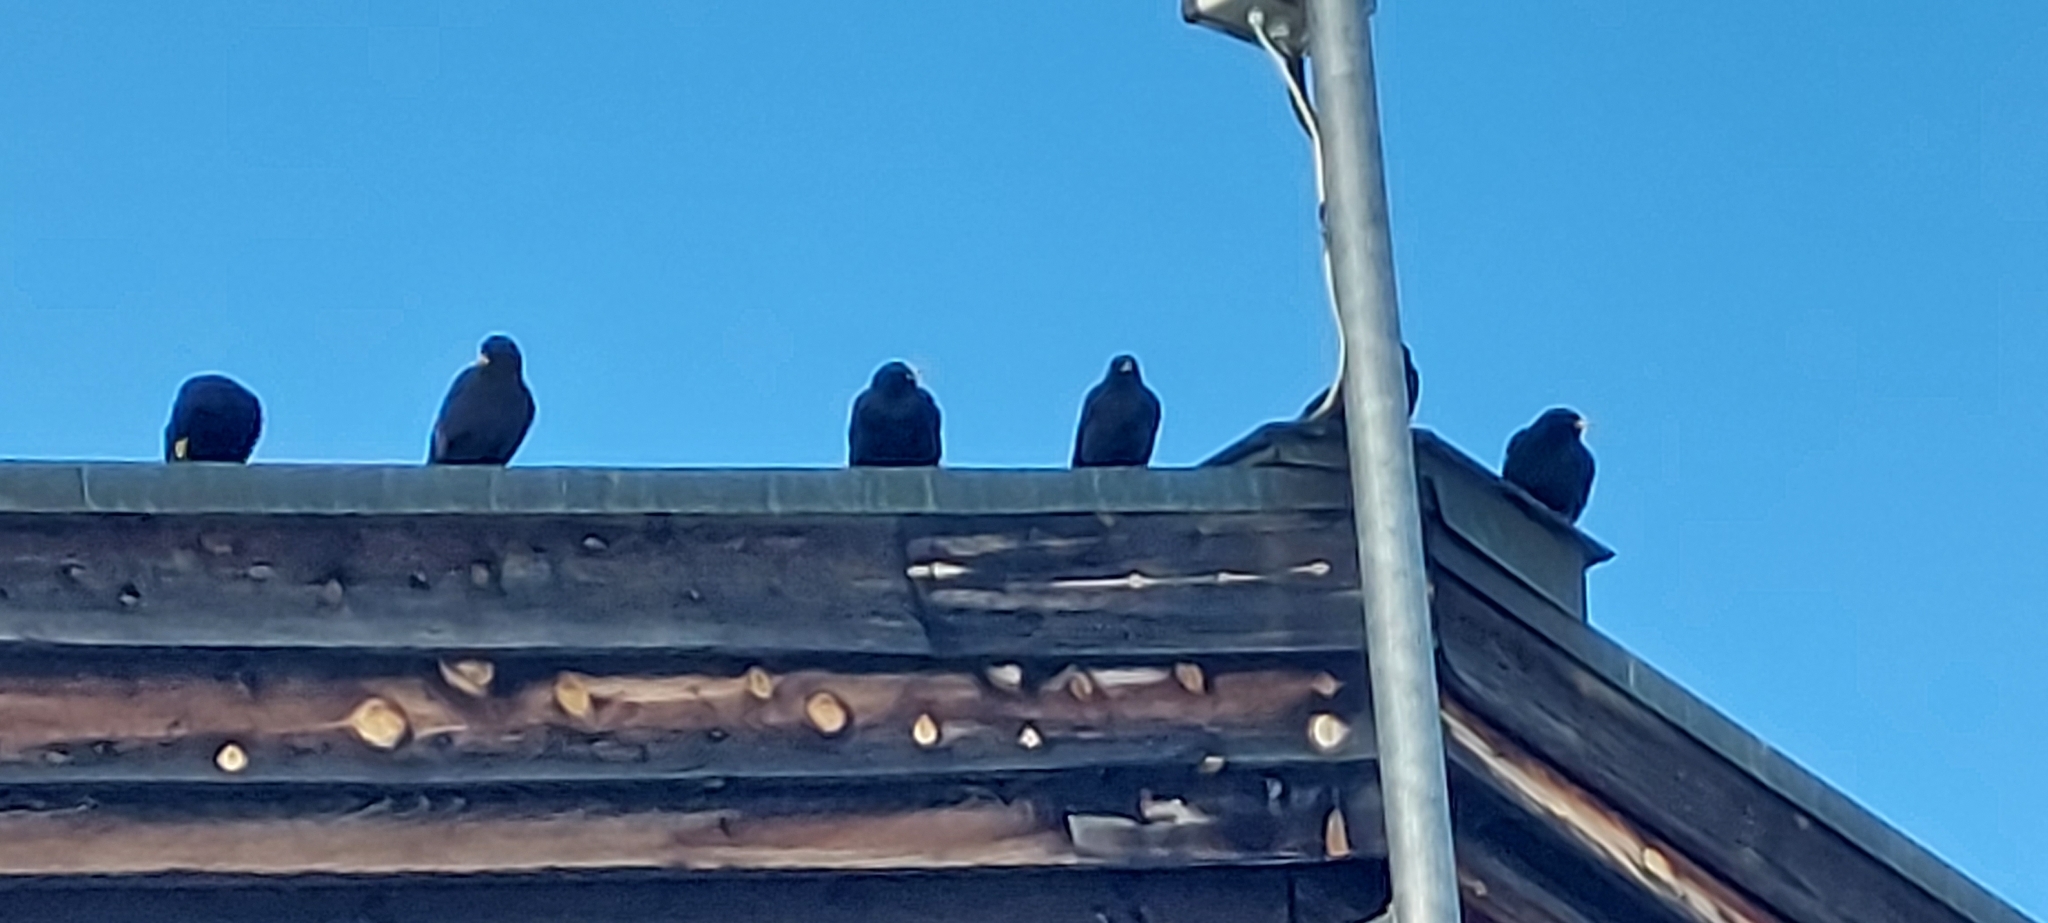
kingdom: Animalia
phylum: Chordata
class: Aves
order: Passeriformes
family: Corvidae
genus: Pyrrhocorax
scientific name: Pyrrhocorax graculus
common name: Alpine chough
